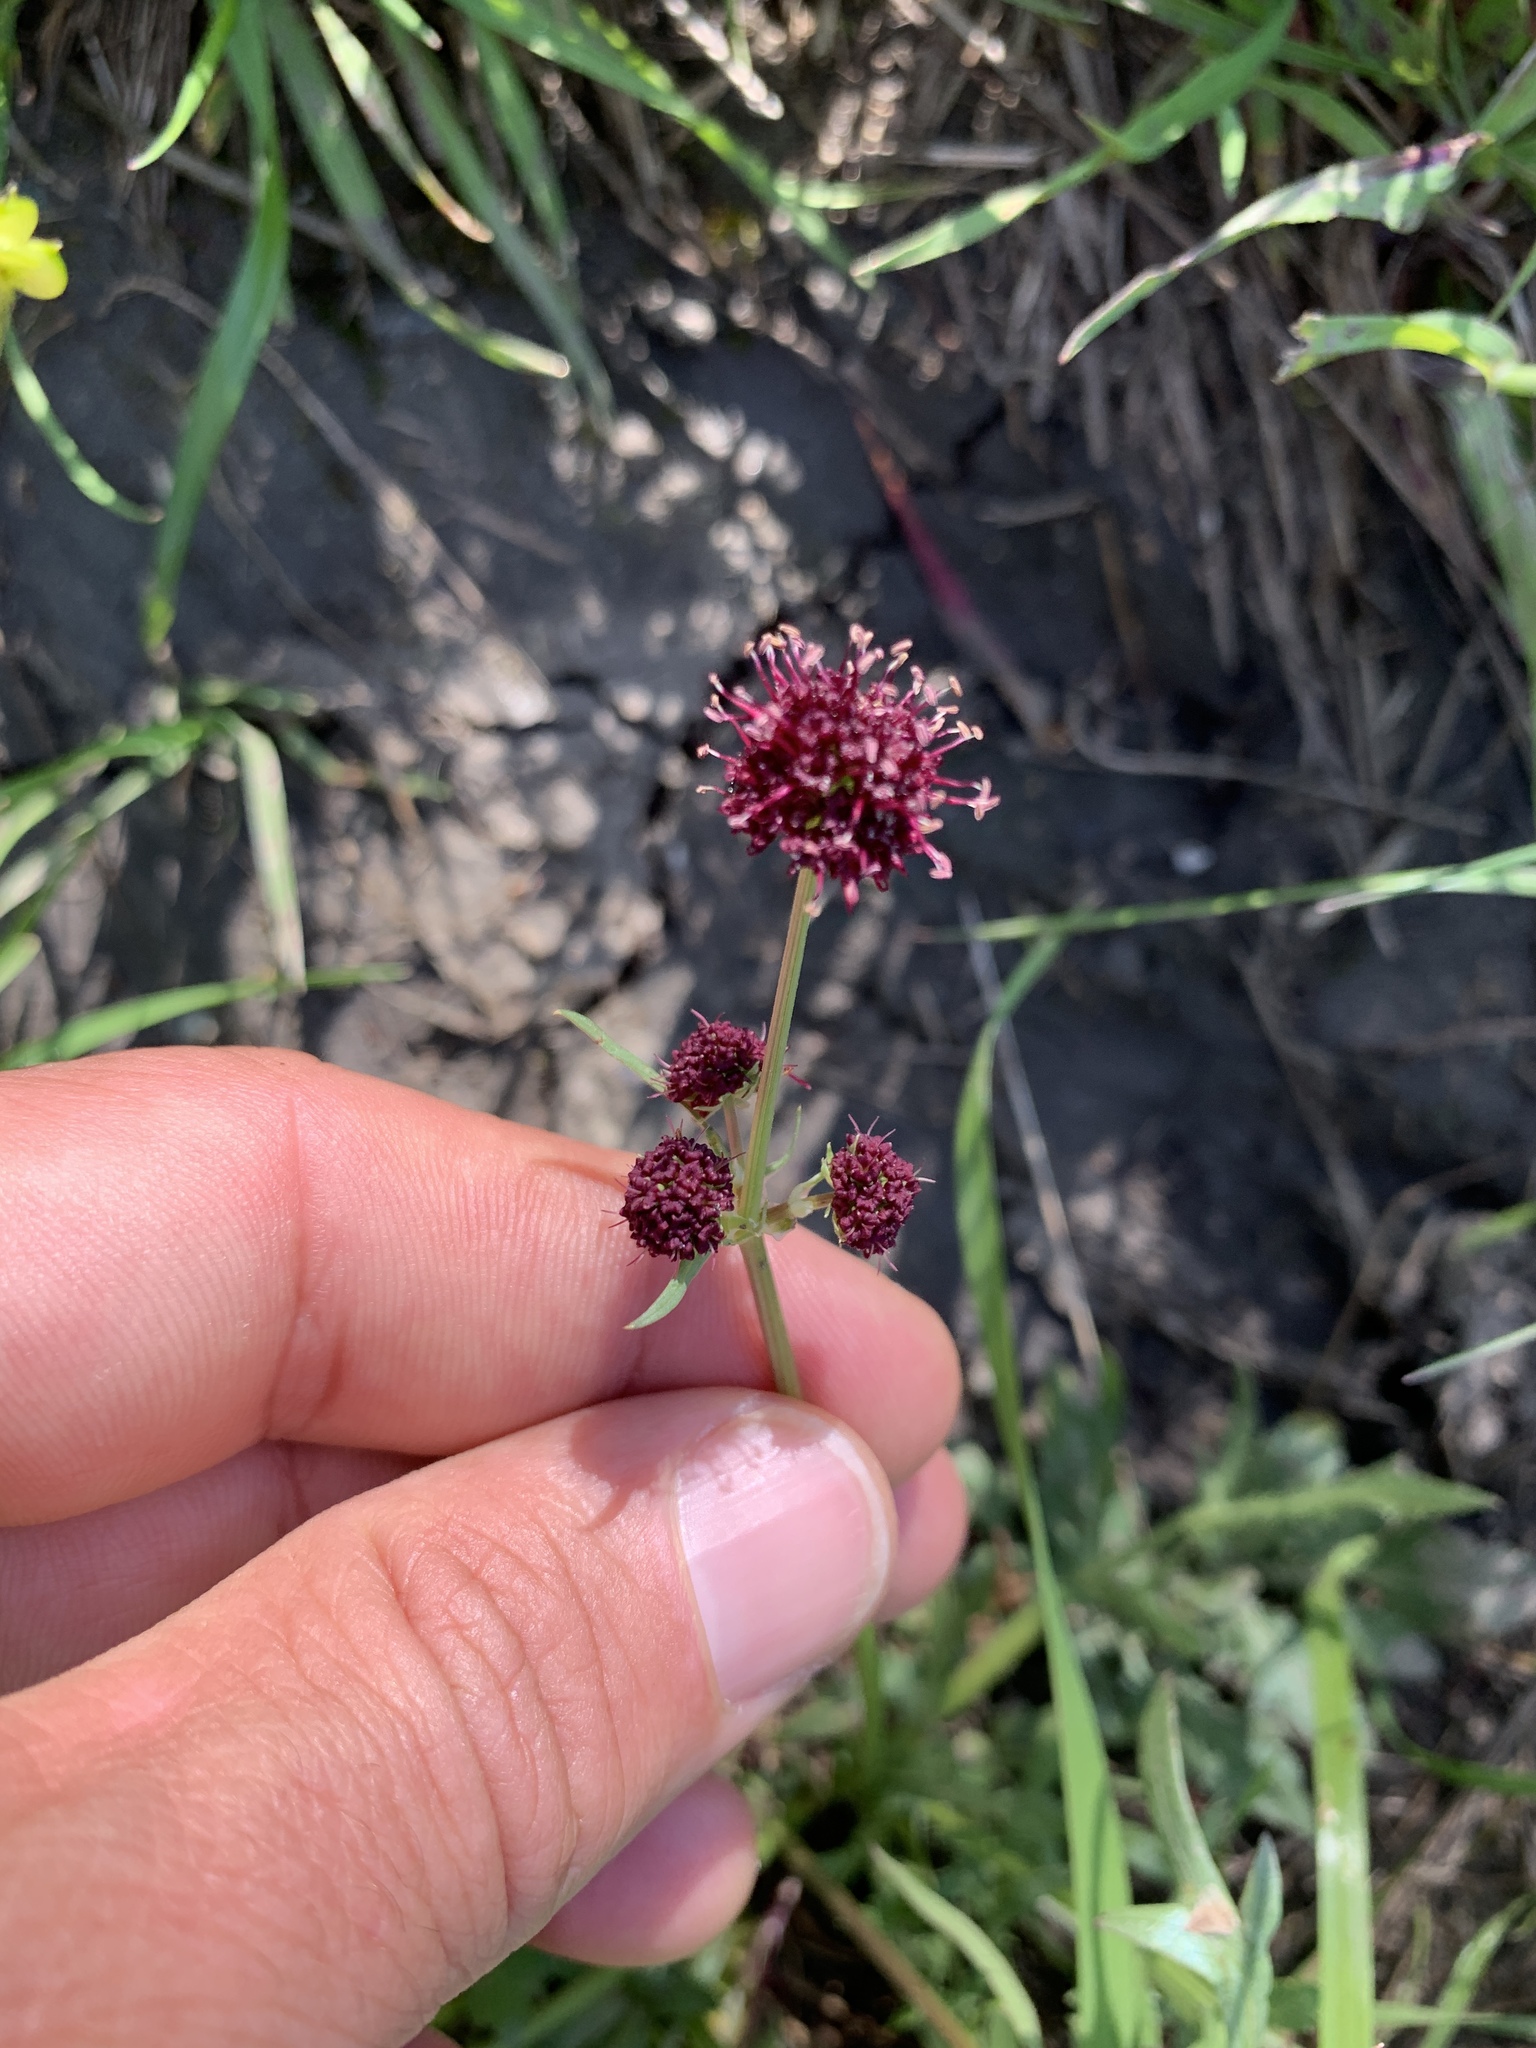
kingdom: Plantae
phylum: Tracheophyta
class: Magnoliopsida
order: Apiales
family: Apiaceae
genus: Sanicula
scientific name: Sanicula bipinnatifida
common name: Shoe-buttons
